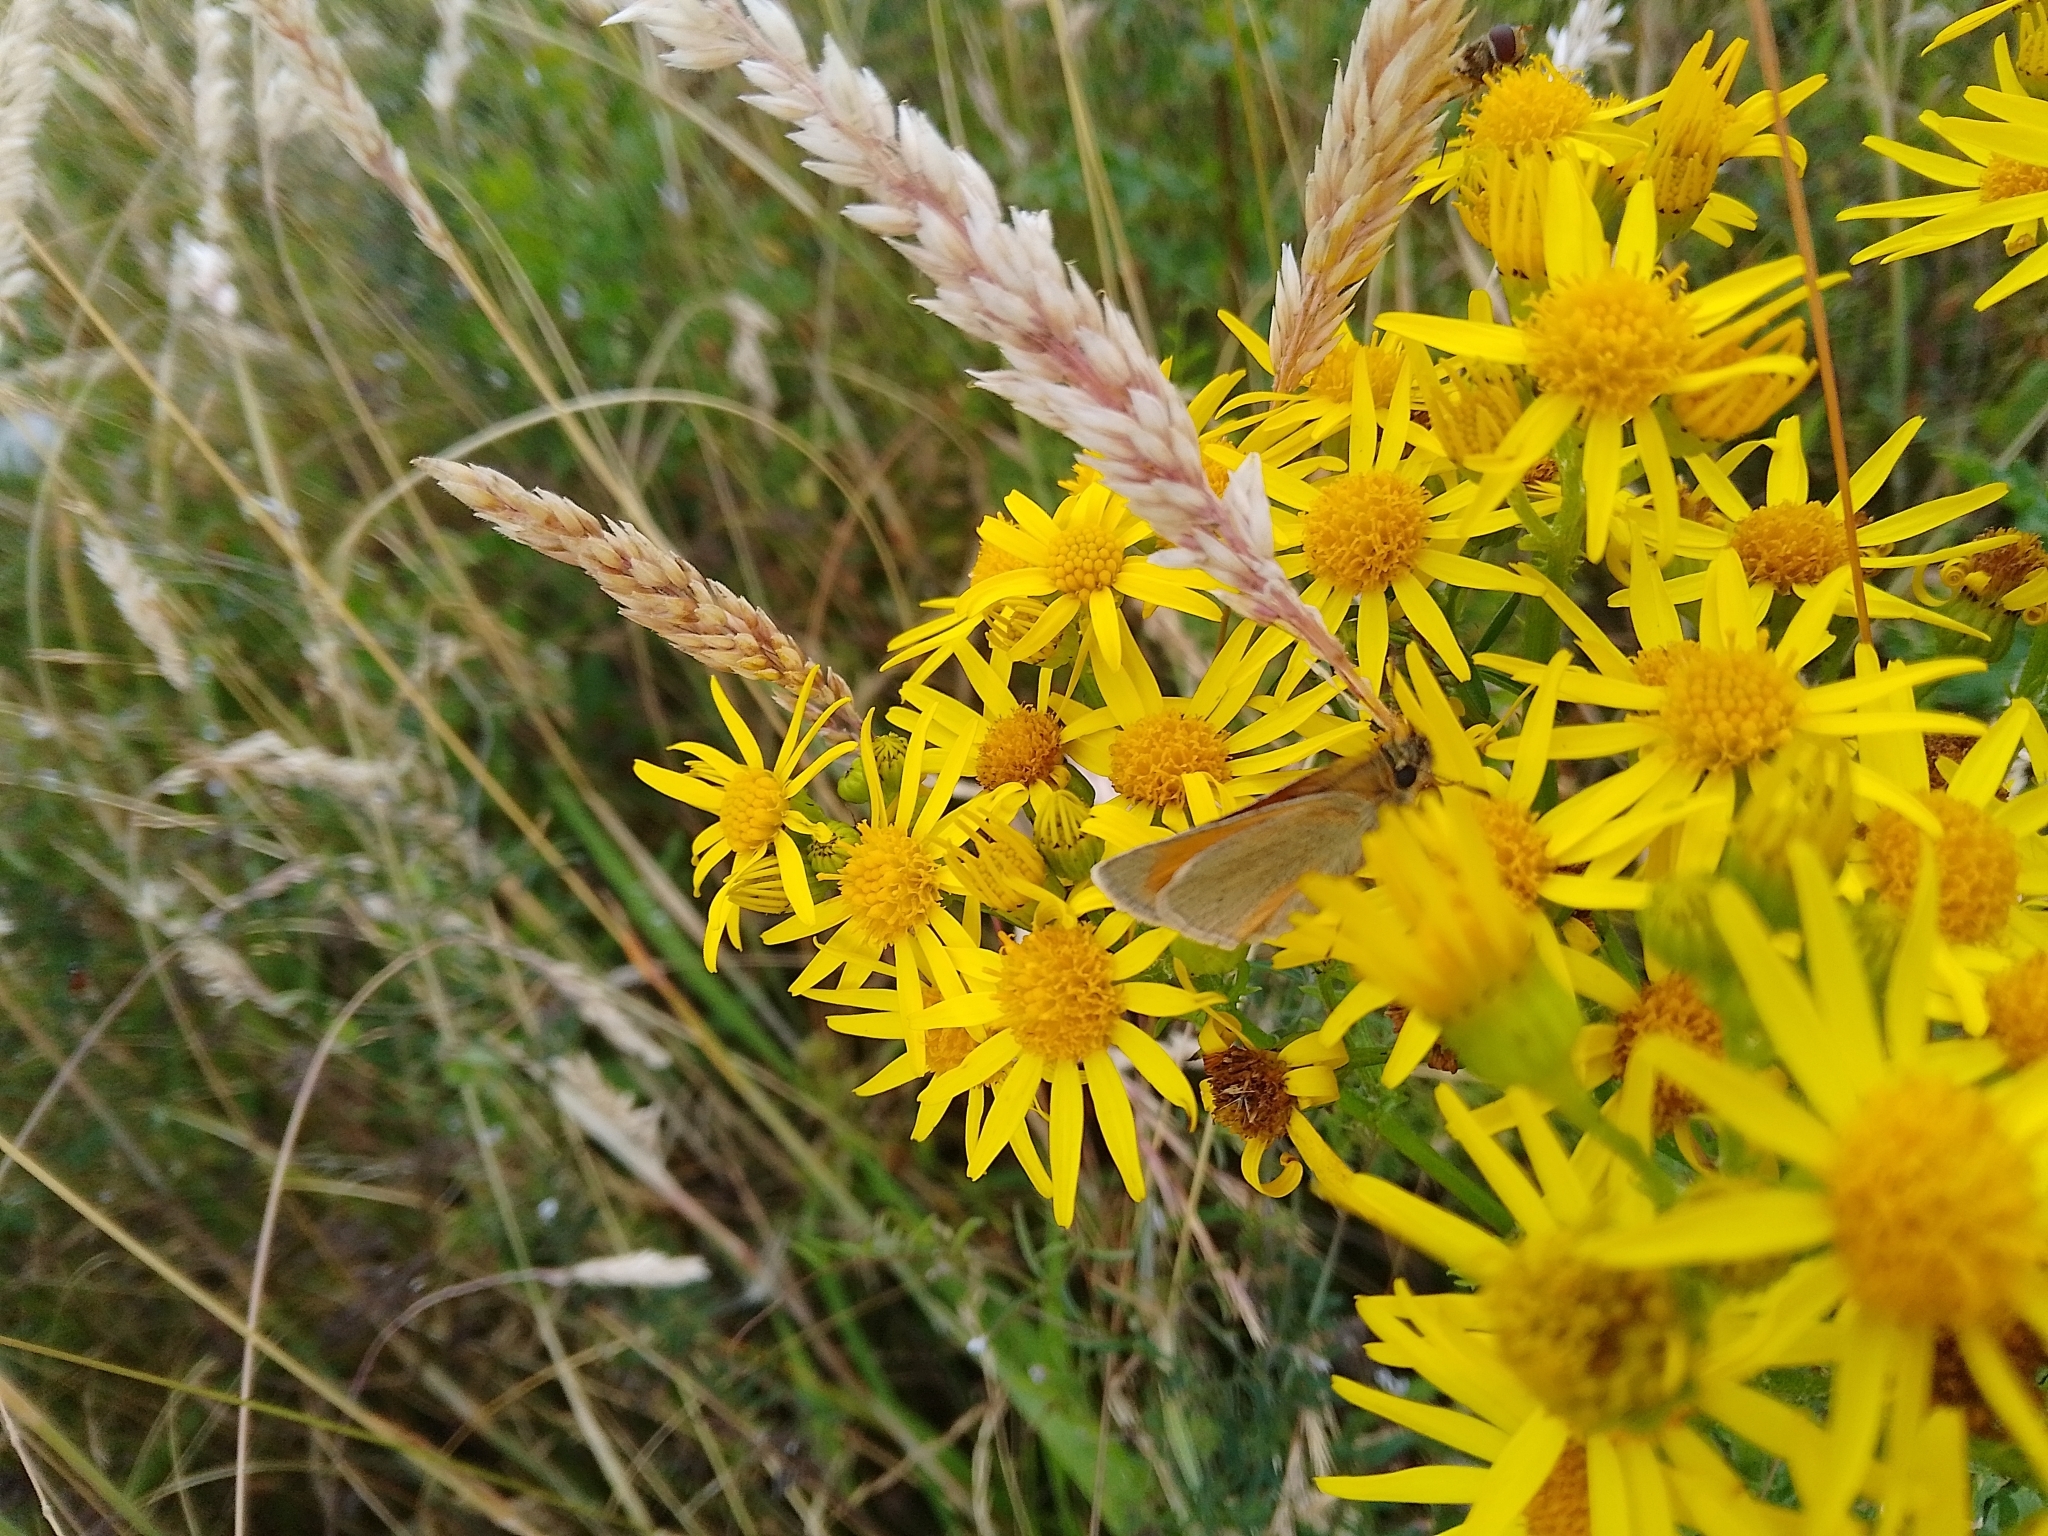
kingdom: Animalia
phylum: Arthropoda
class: Insecta
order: Lepidoptera
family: Hesperiidae
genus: Thymelicus
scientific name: Thymelicus sylvestris
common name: Small skipper
